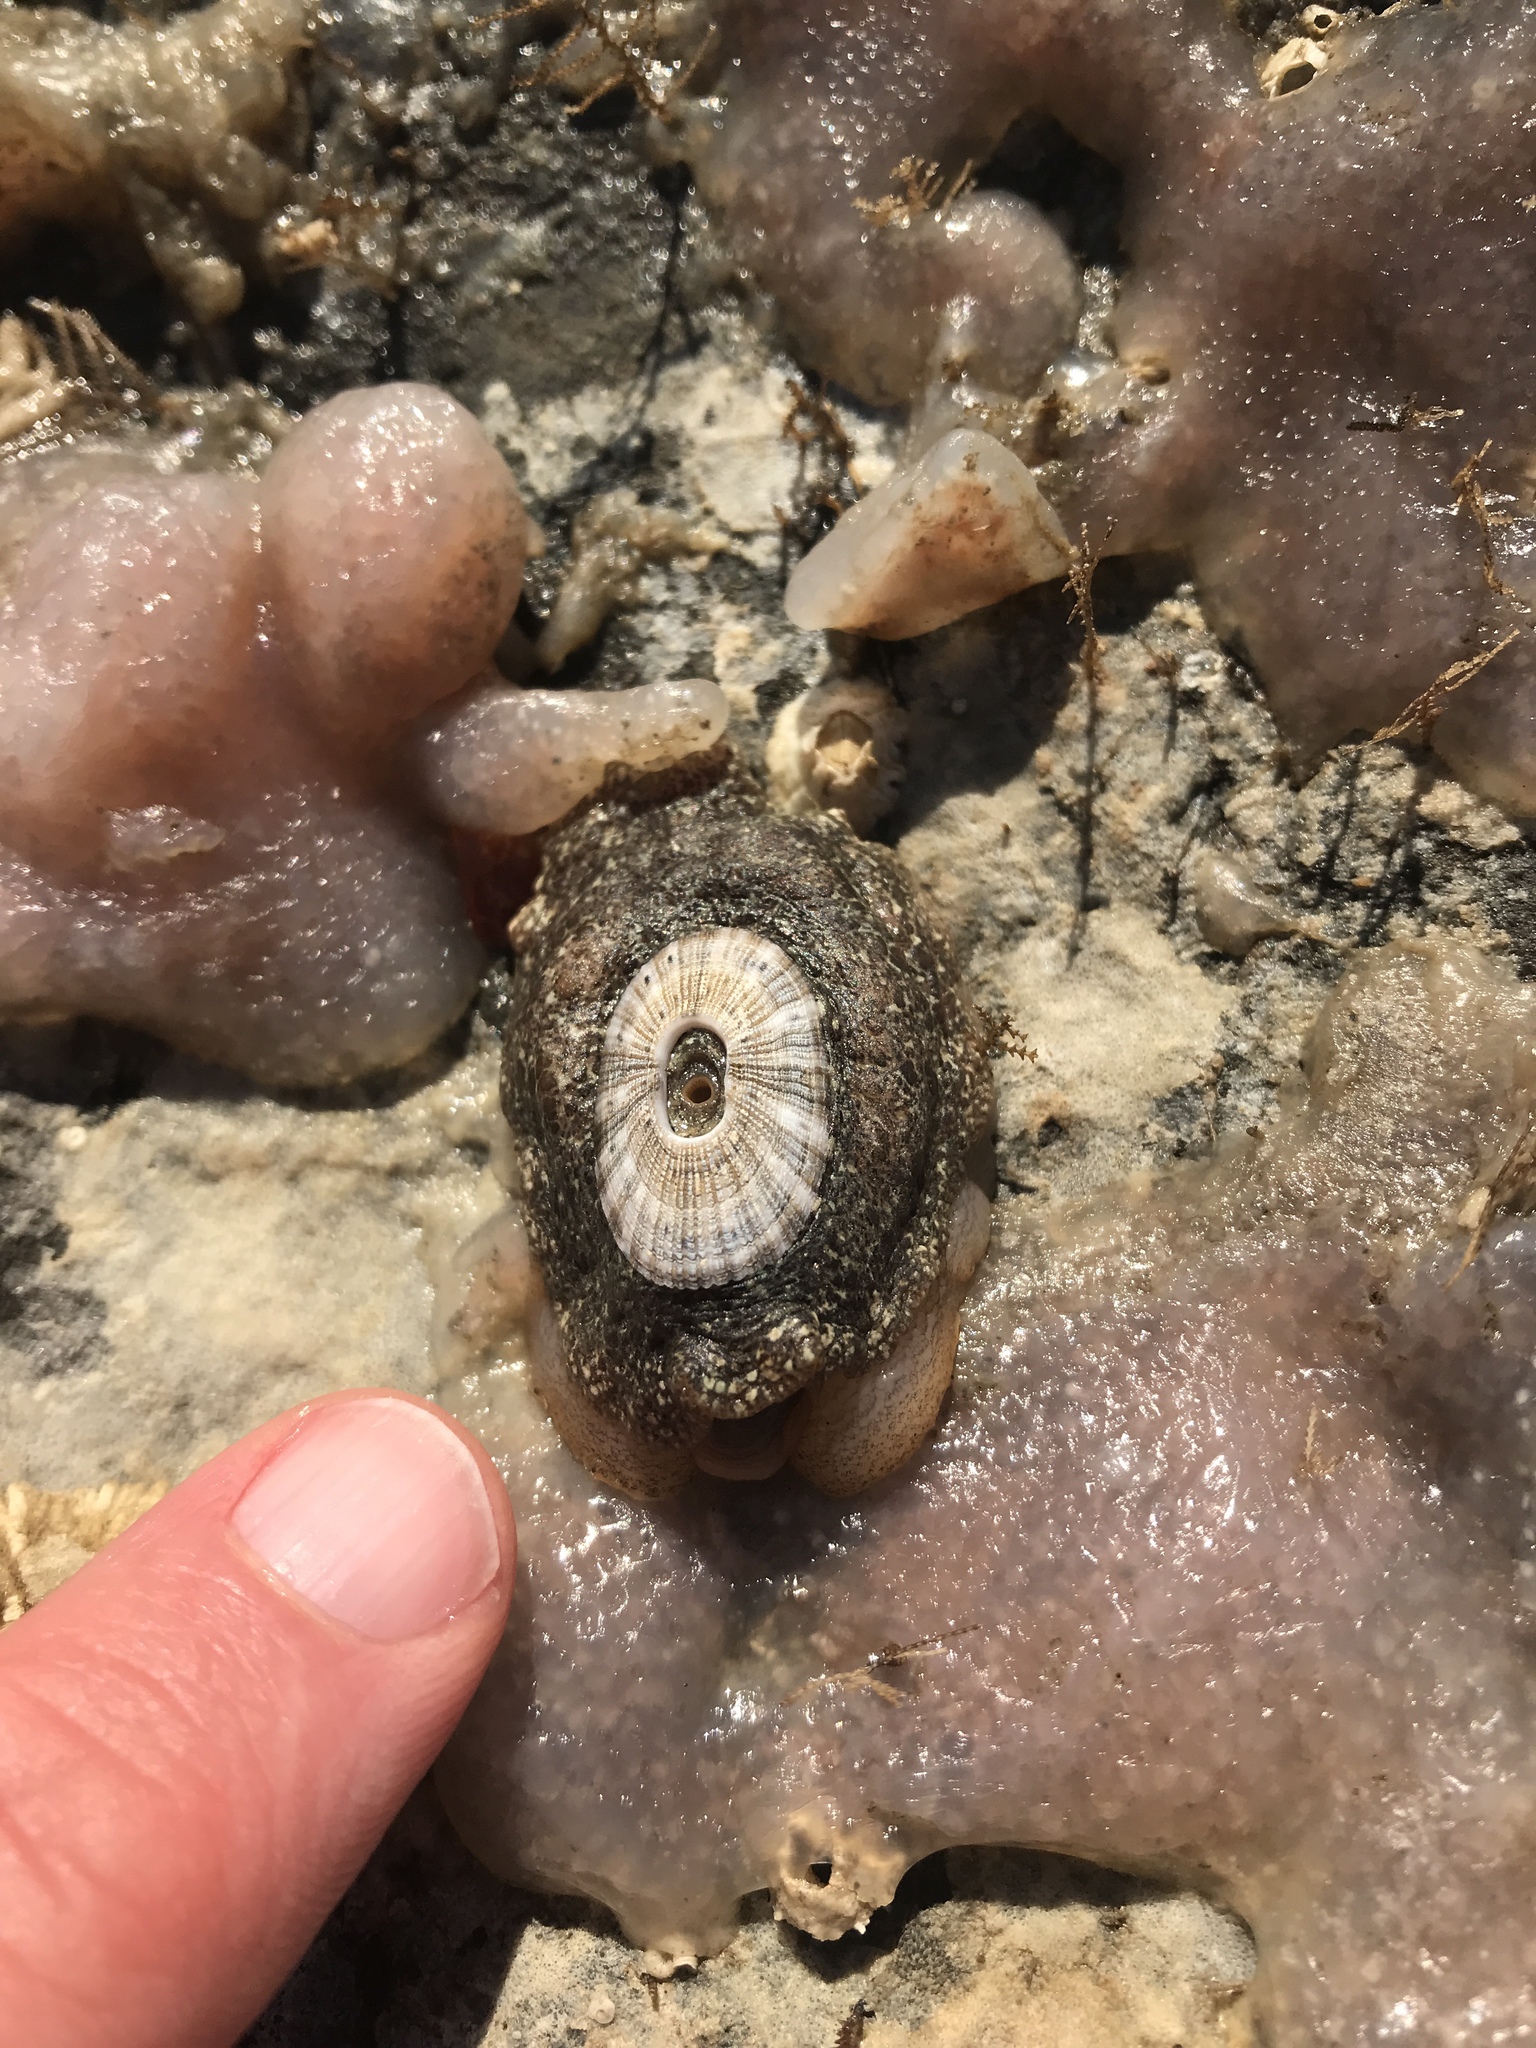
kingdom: Animalia
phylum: Mollusca
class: Gastropoda
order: Lepetellida
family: Fissurellidae
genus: Fissurellidea
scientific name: Fissurellidea bimaculata
